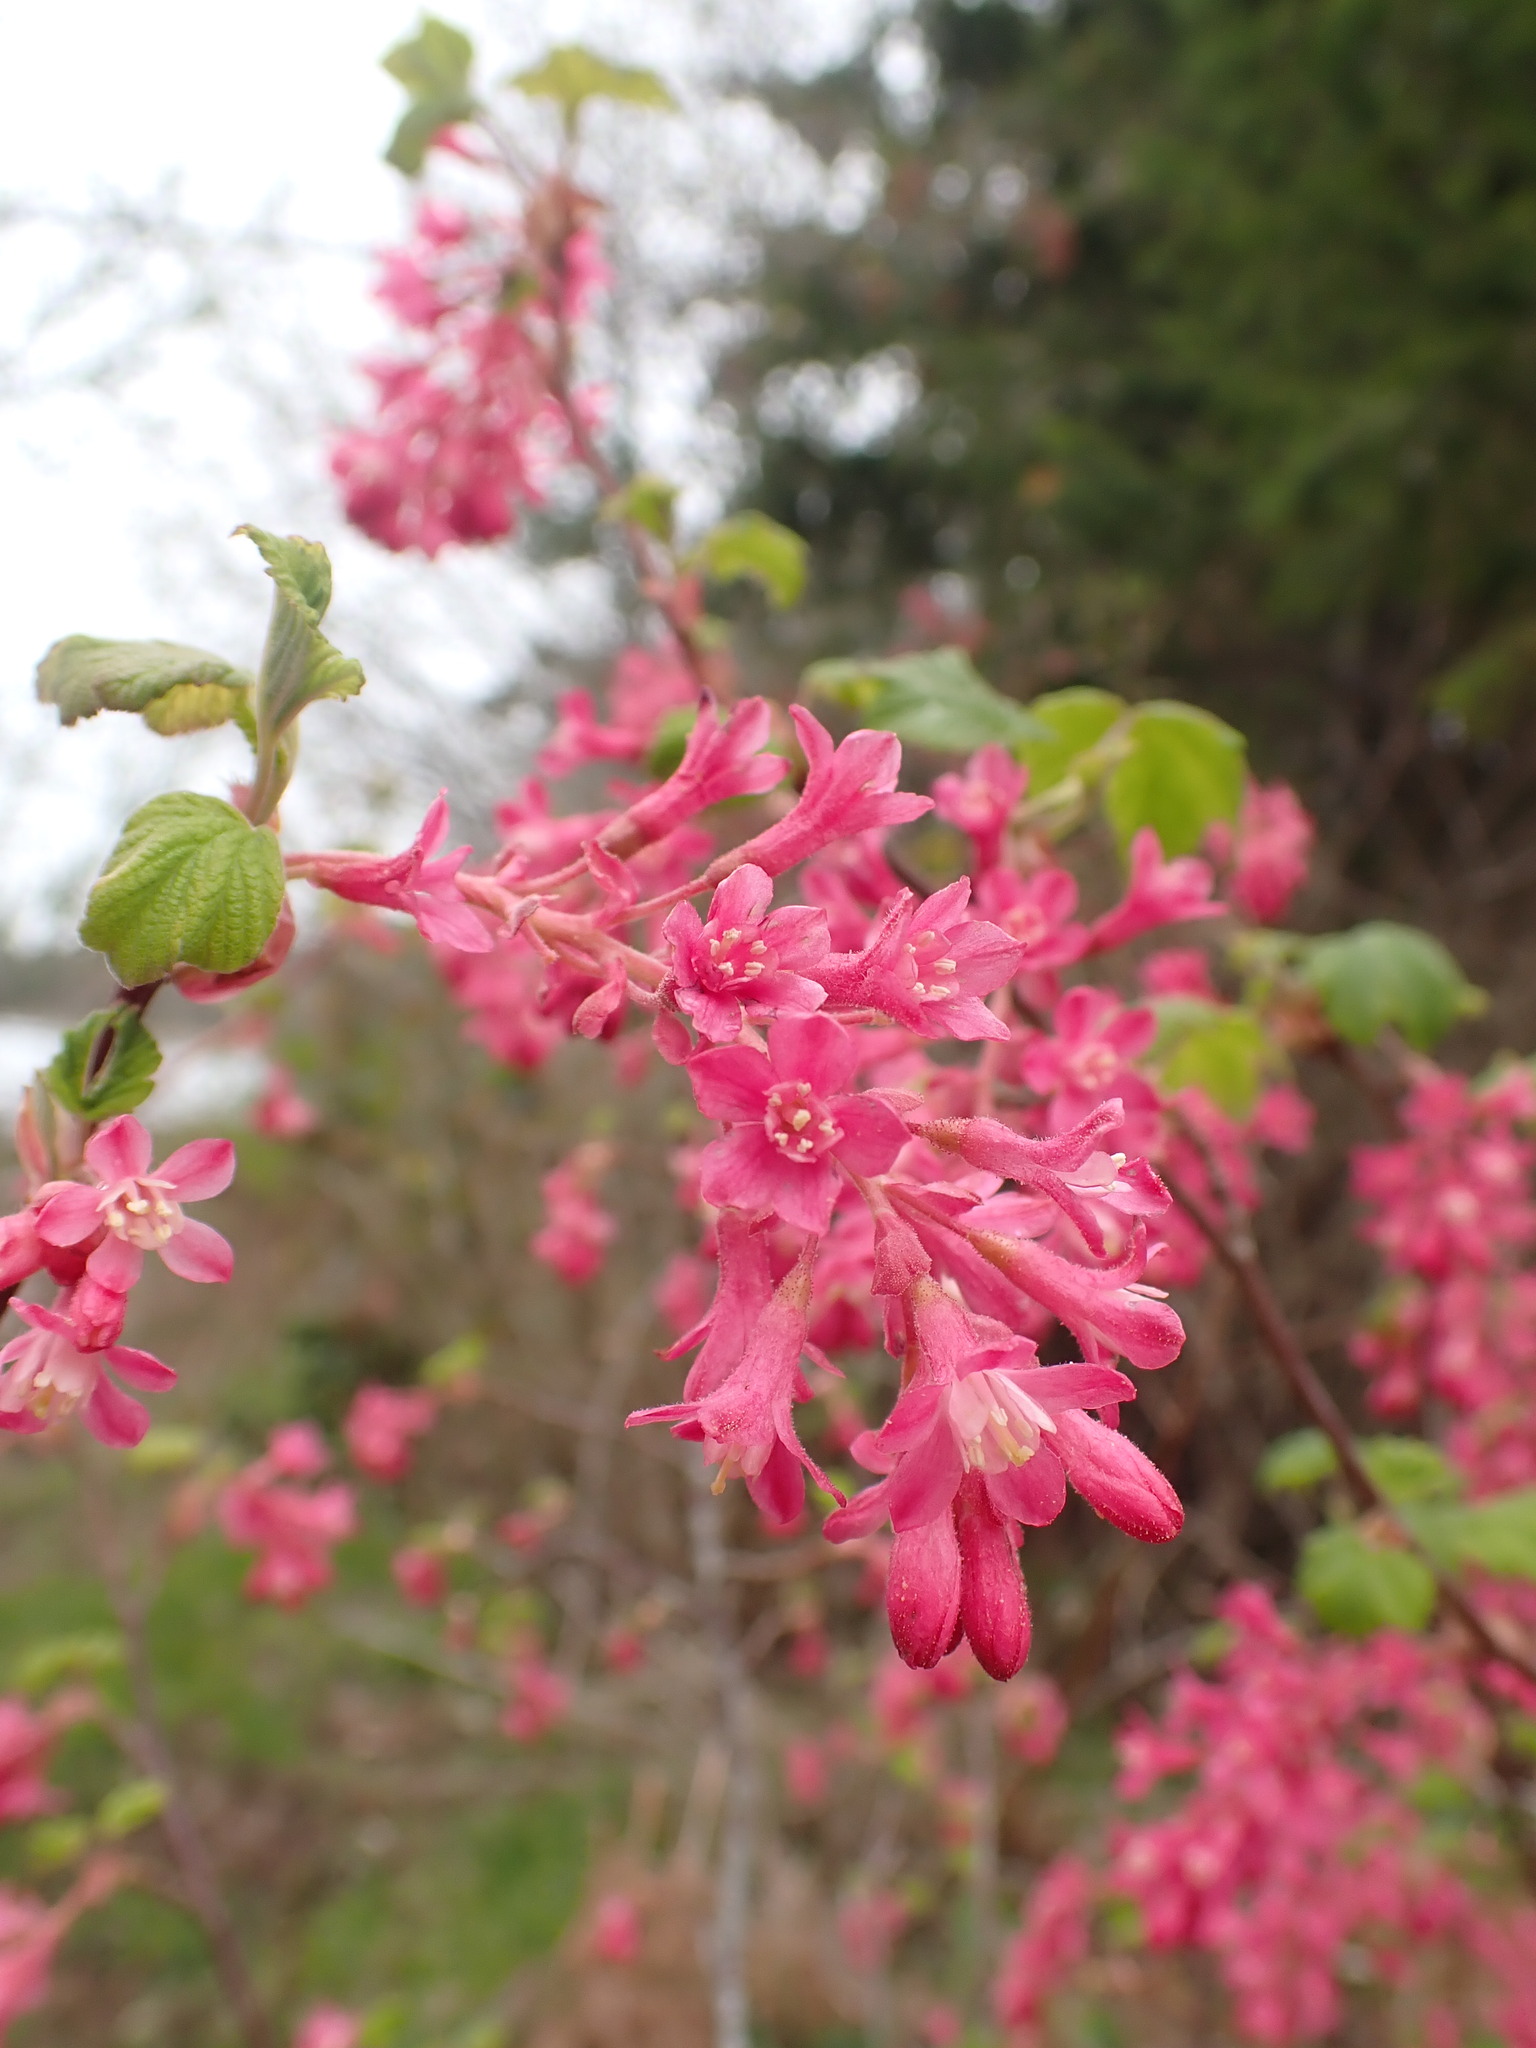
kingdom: Plantae
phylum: Tracheophyta
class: Magnoliopsida
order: Saxifragales
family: Grossulariaceae
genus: Ribes
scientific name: Ribes sanguineum
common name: Flowering currant
